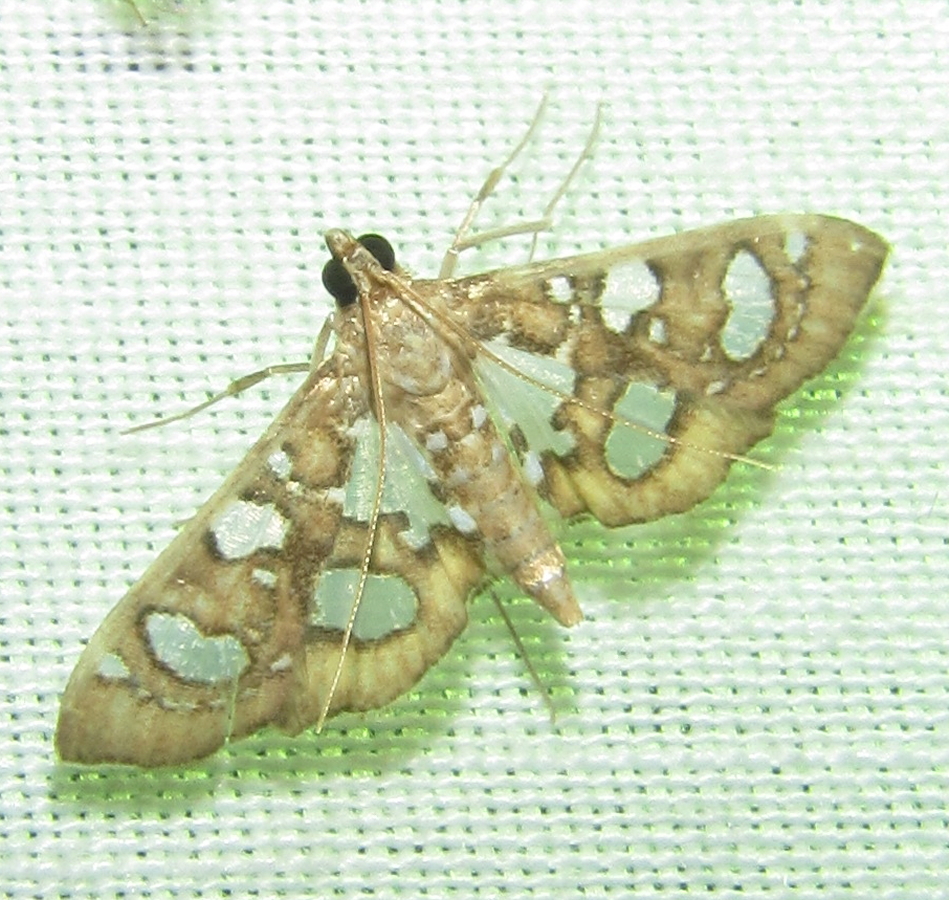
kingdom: Animalia
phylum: Arthropoda
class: Insecta
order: Lepidoptera
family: Crambidae
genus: Nausinoe
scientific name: Nausinoe quadrinalis
